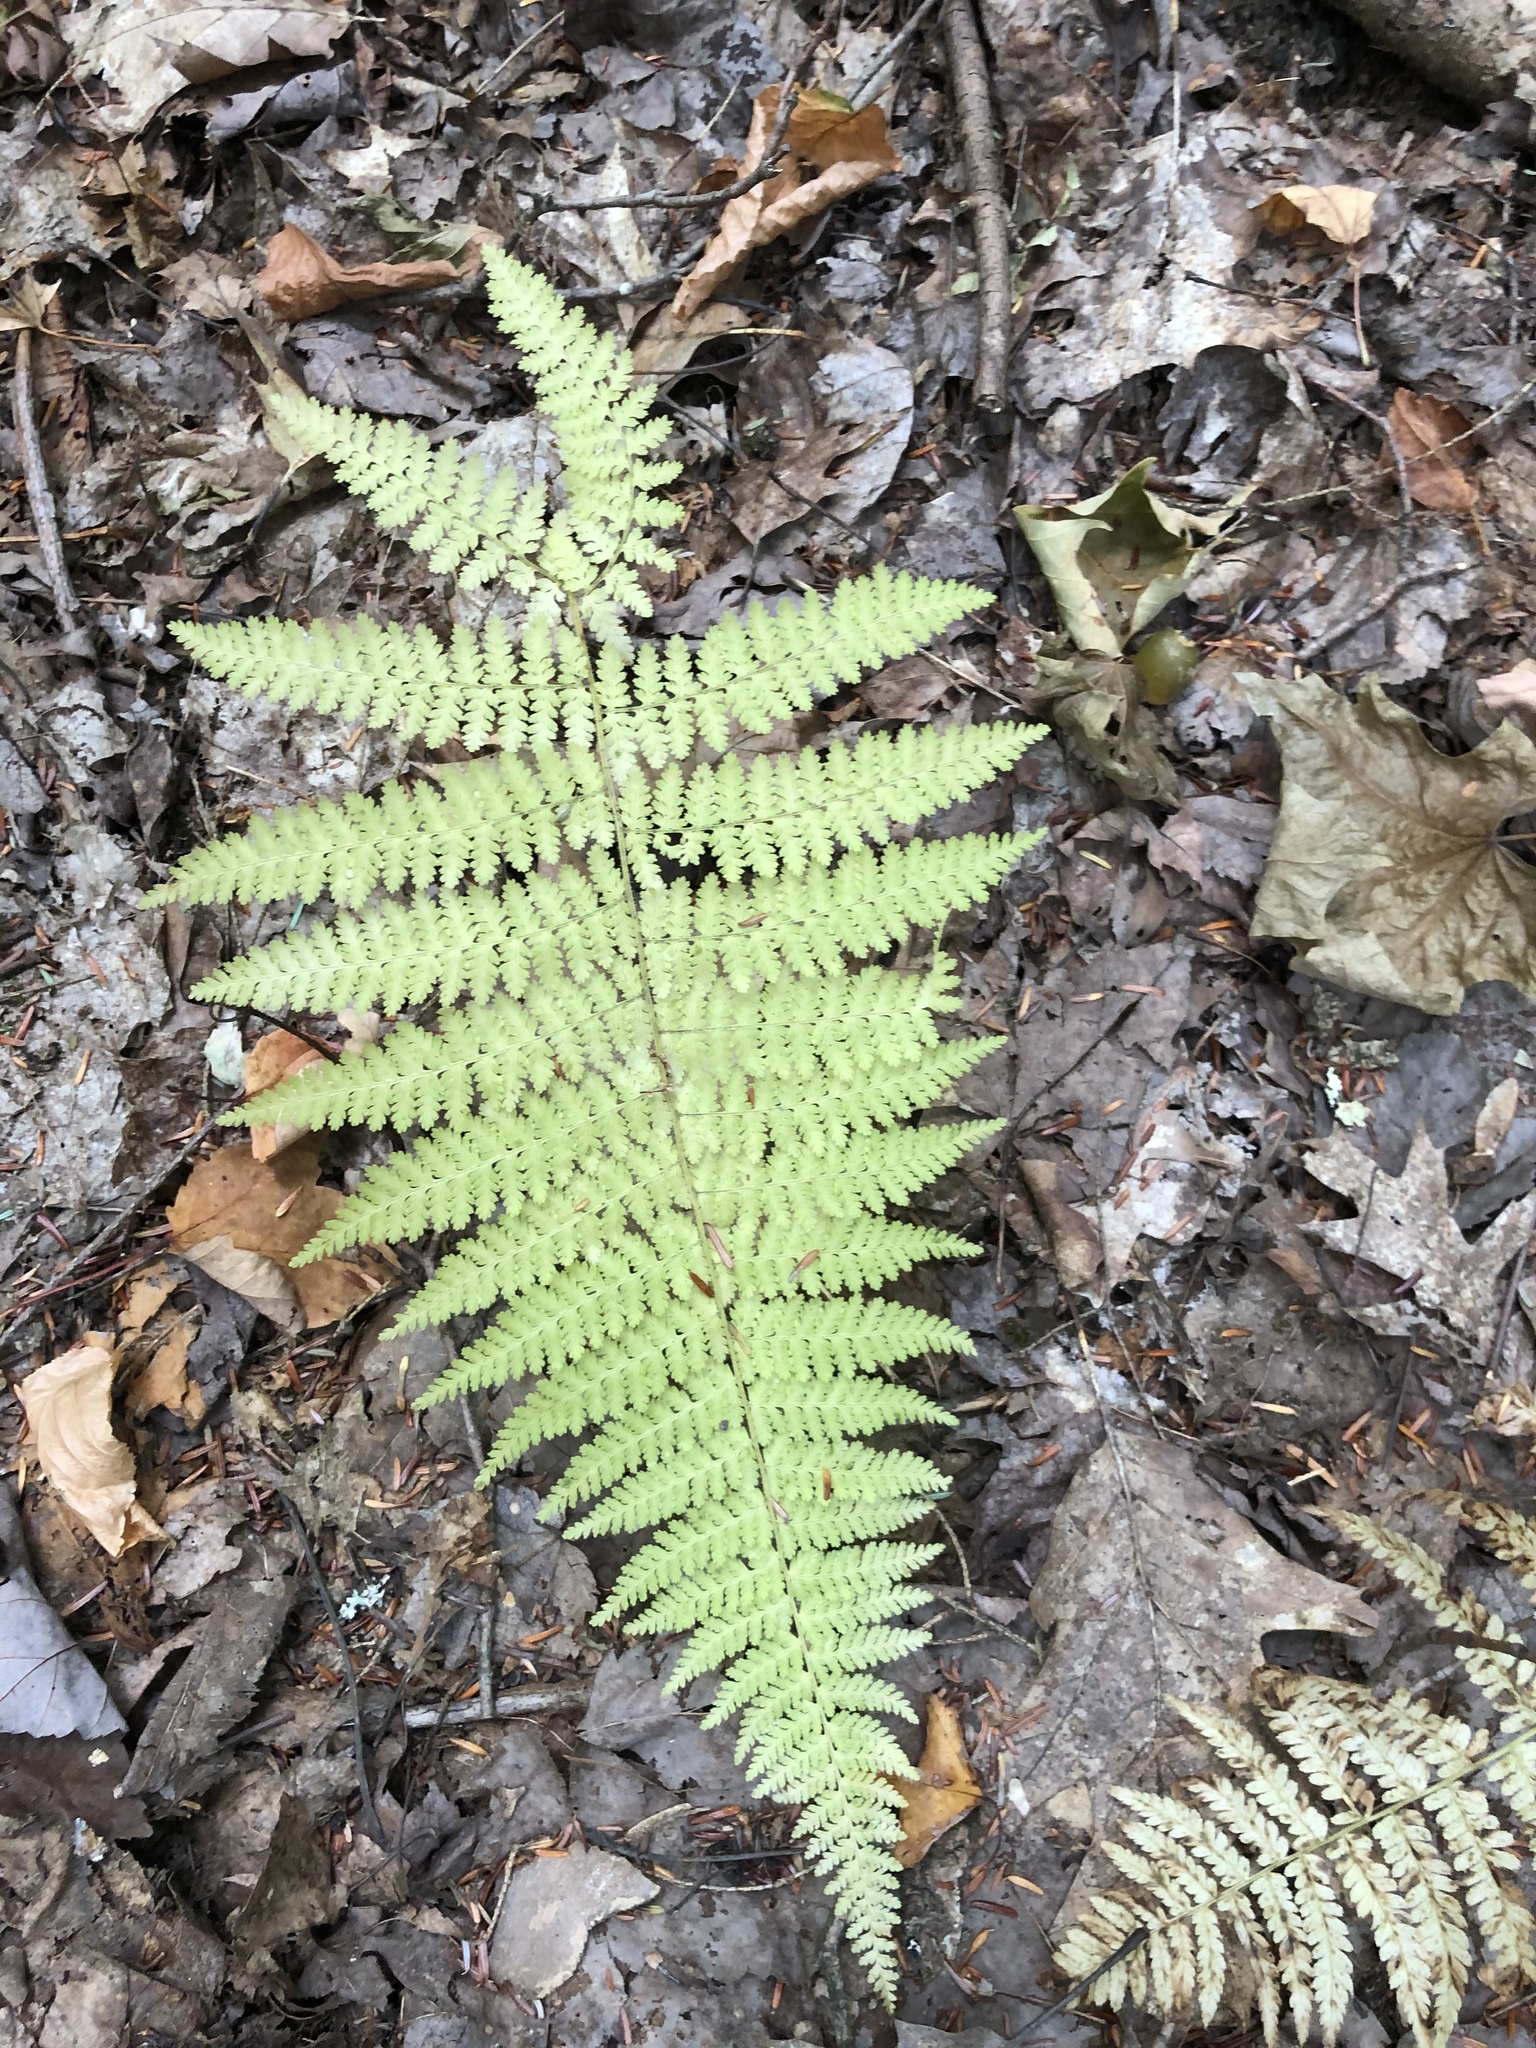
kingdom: Plantae
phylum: Tracheophyta
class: Polypodiopsida
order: Polypodiales
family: Dennstaedtiaceae
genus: Sitobolium
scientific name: Sitobolium punctilobum
